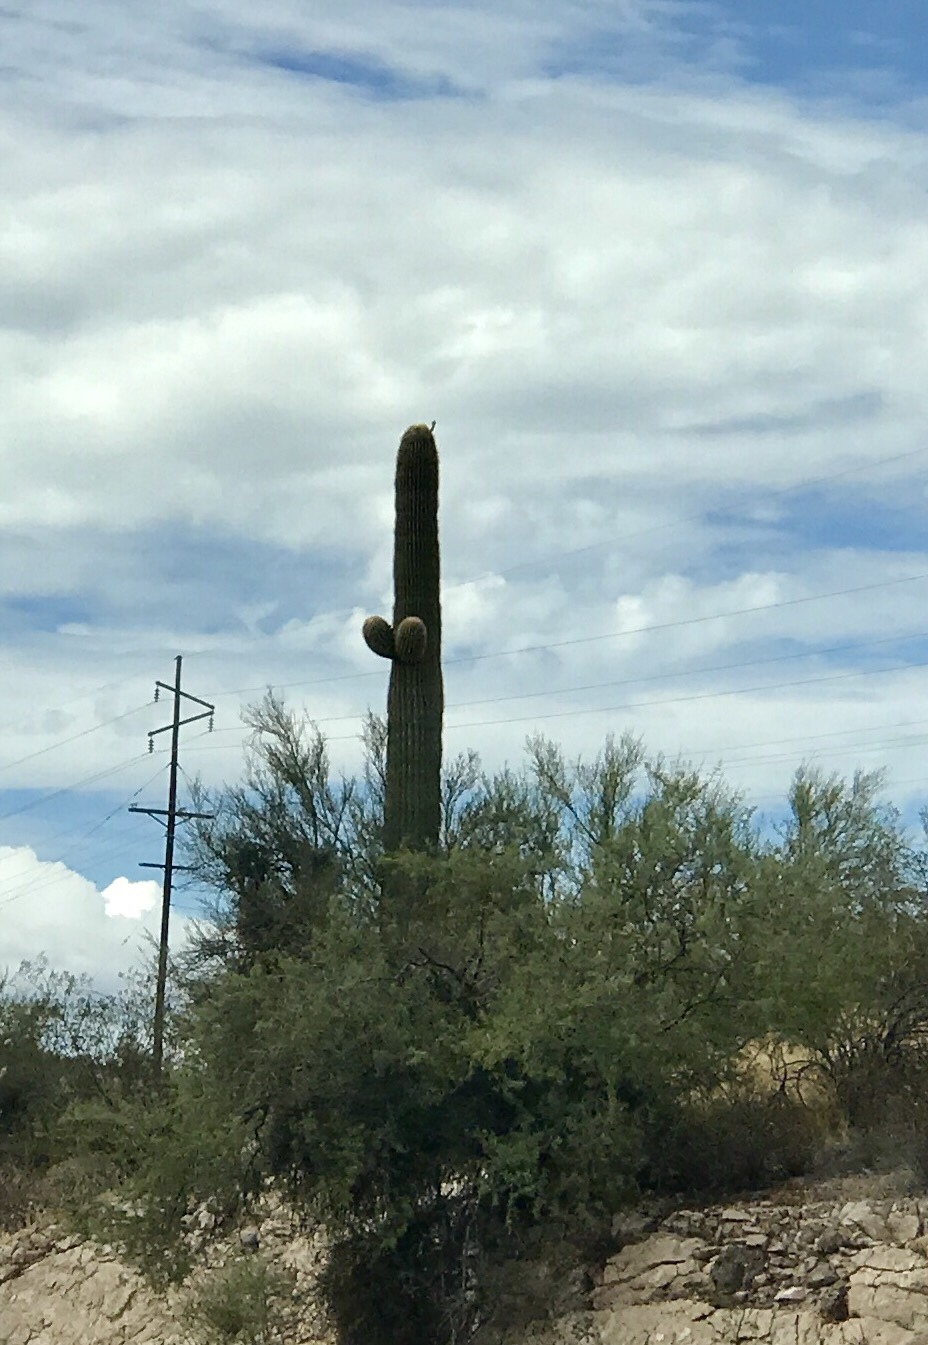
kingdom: Plantae
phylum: Tracheophyta
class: Magnoliopsida
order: Caryophyllales
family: Cactaceae
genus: Carnegiea
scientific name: Carnegiea gigantea
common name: Saguaro
